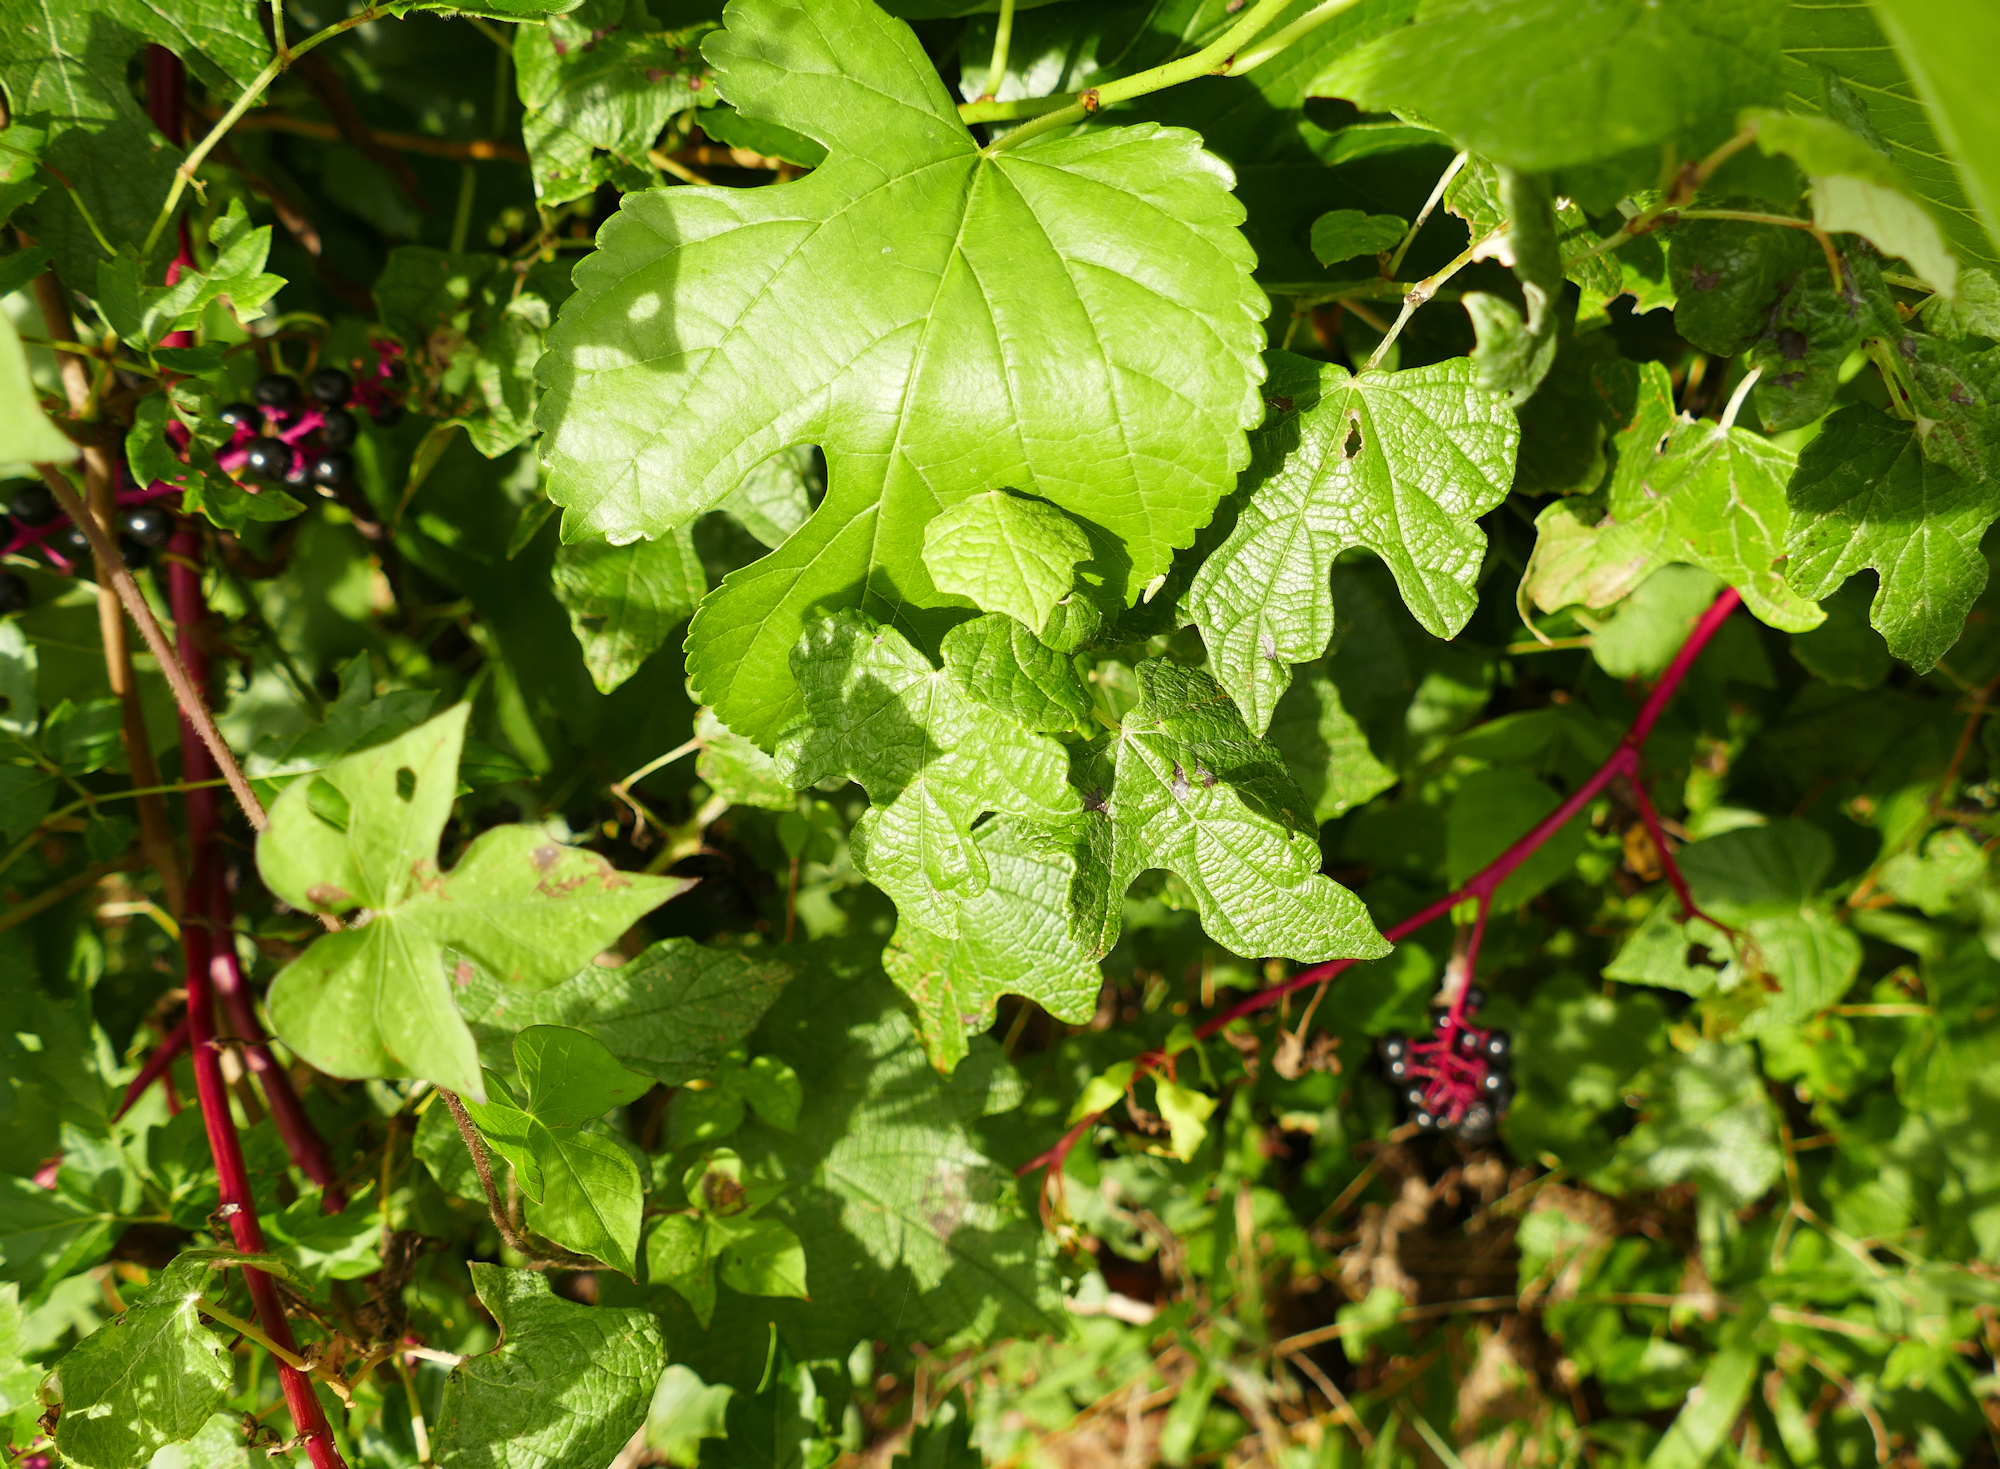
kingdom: Plantae
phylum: Tracheophyta
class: Magnoliopsida
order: Vitales
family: Vitaceae
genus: Vitis
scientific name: Vitis mustangensis
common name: Mustang grape
